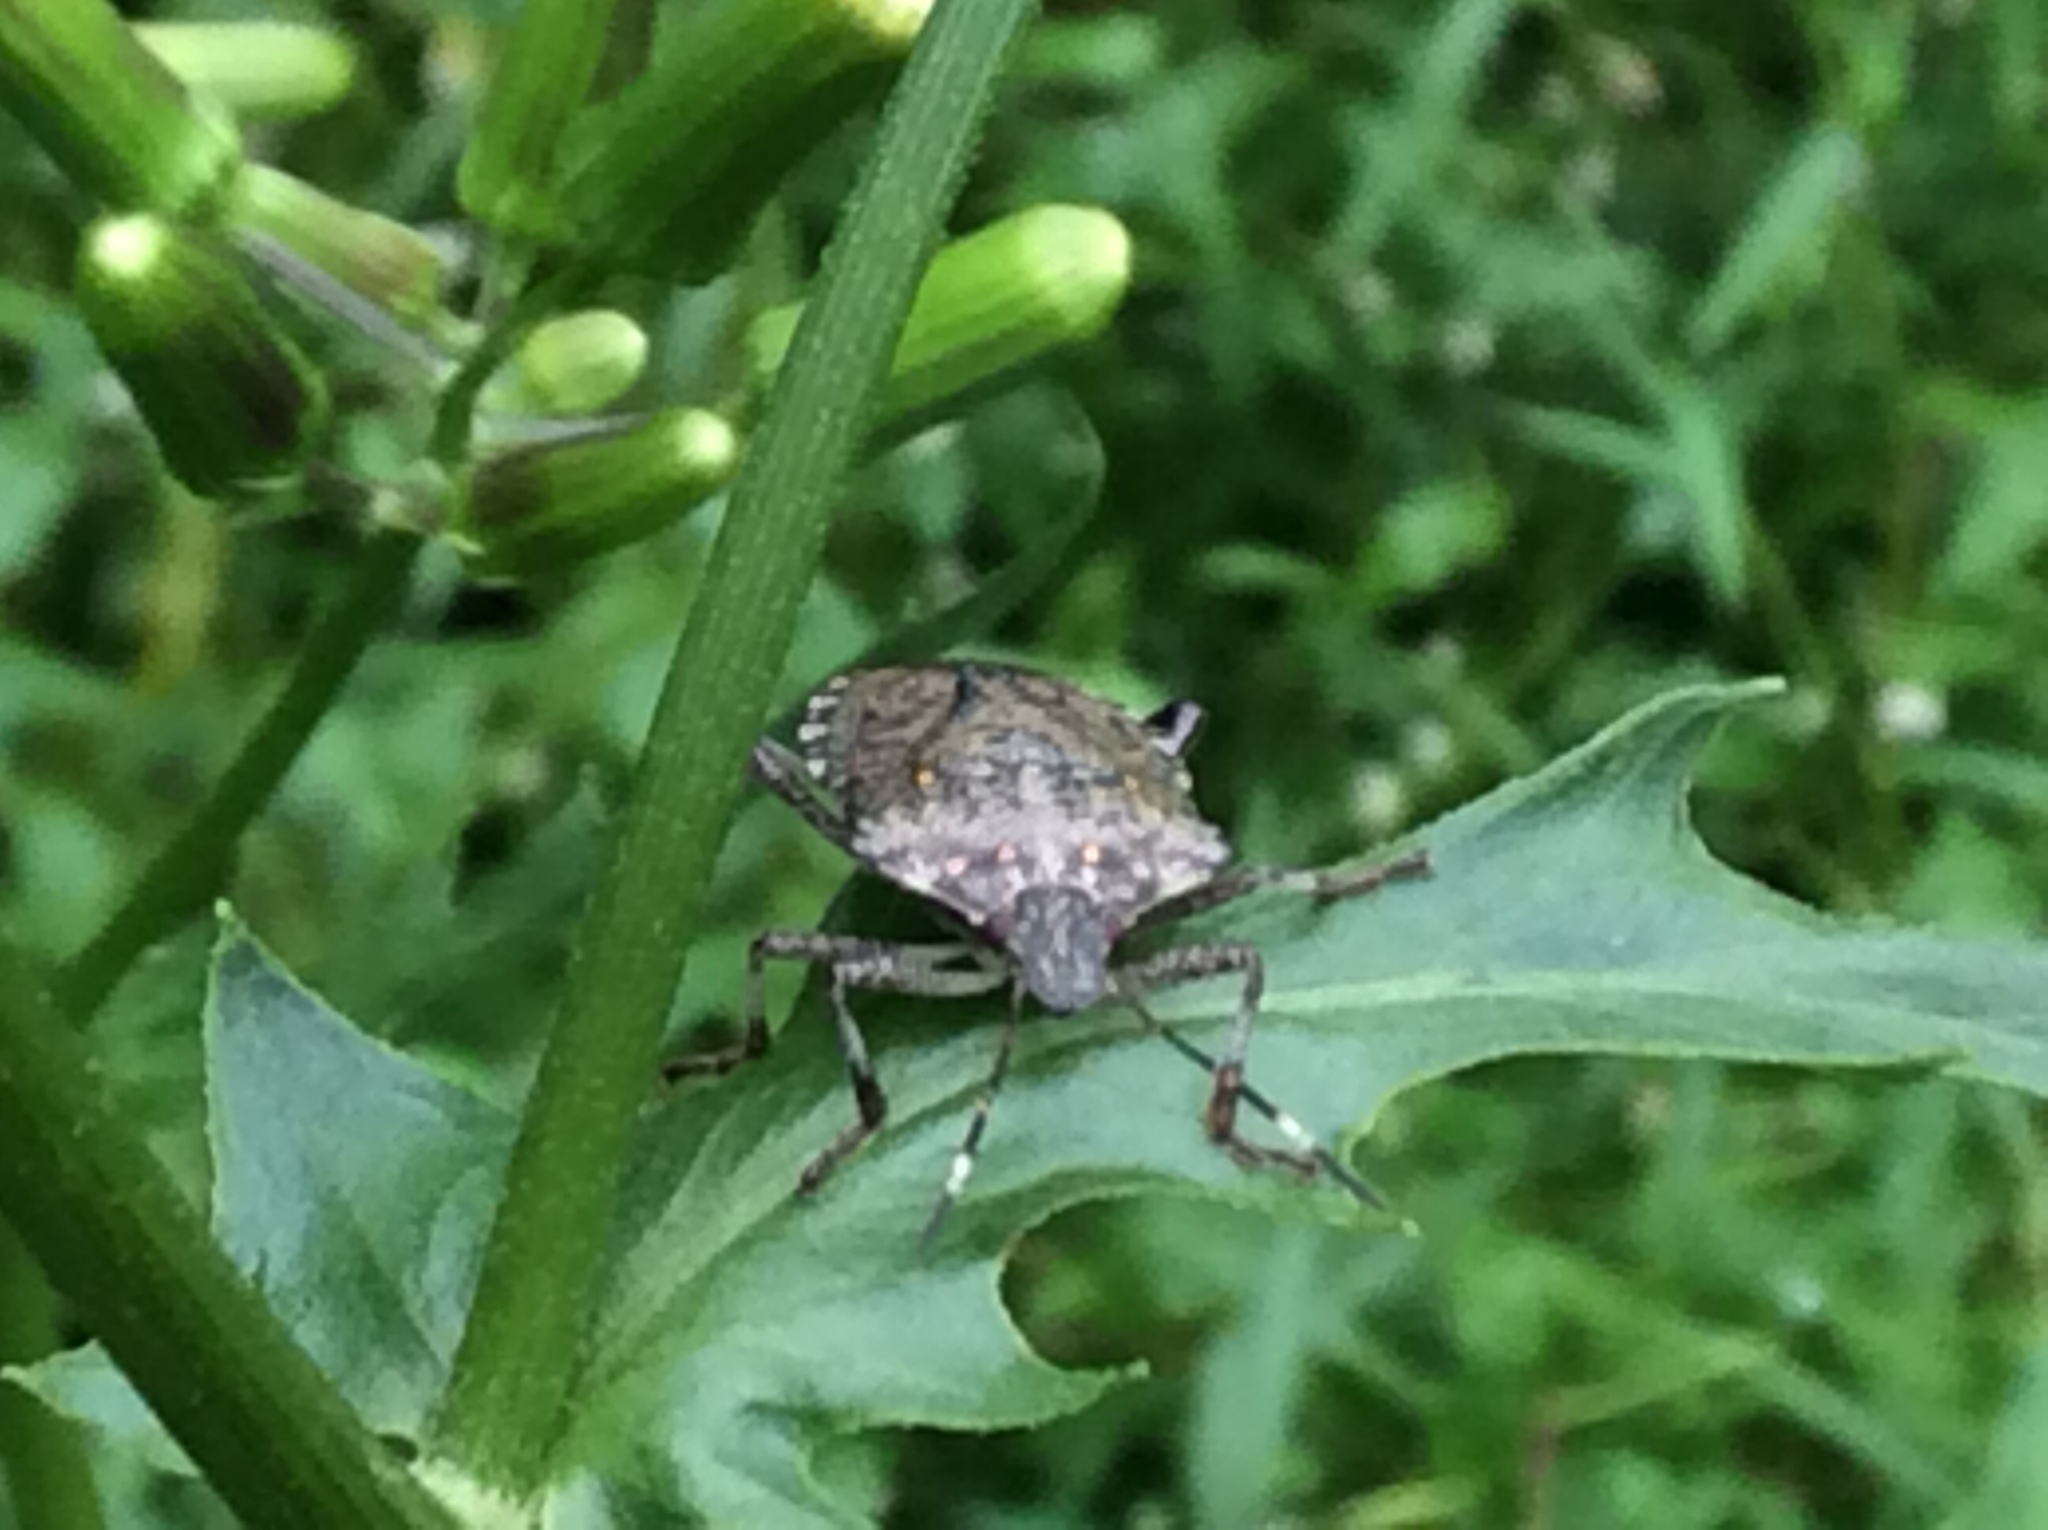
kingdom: Animalia
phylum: Arthropoda
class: Insecta
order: Hemiptera
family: Pentatomidae
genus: Halyomorpha
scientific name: Halyomorpha halys
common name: Brown marmorated stink bug
